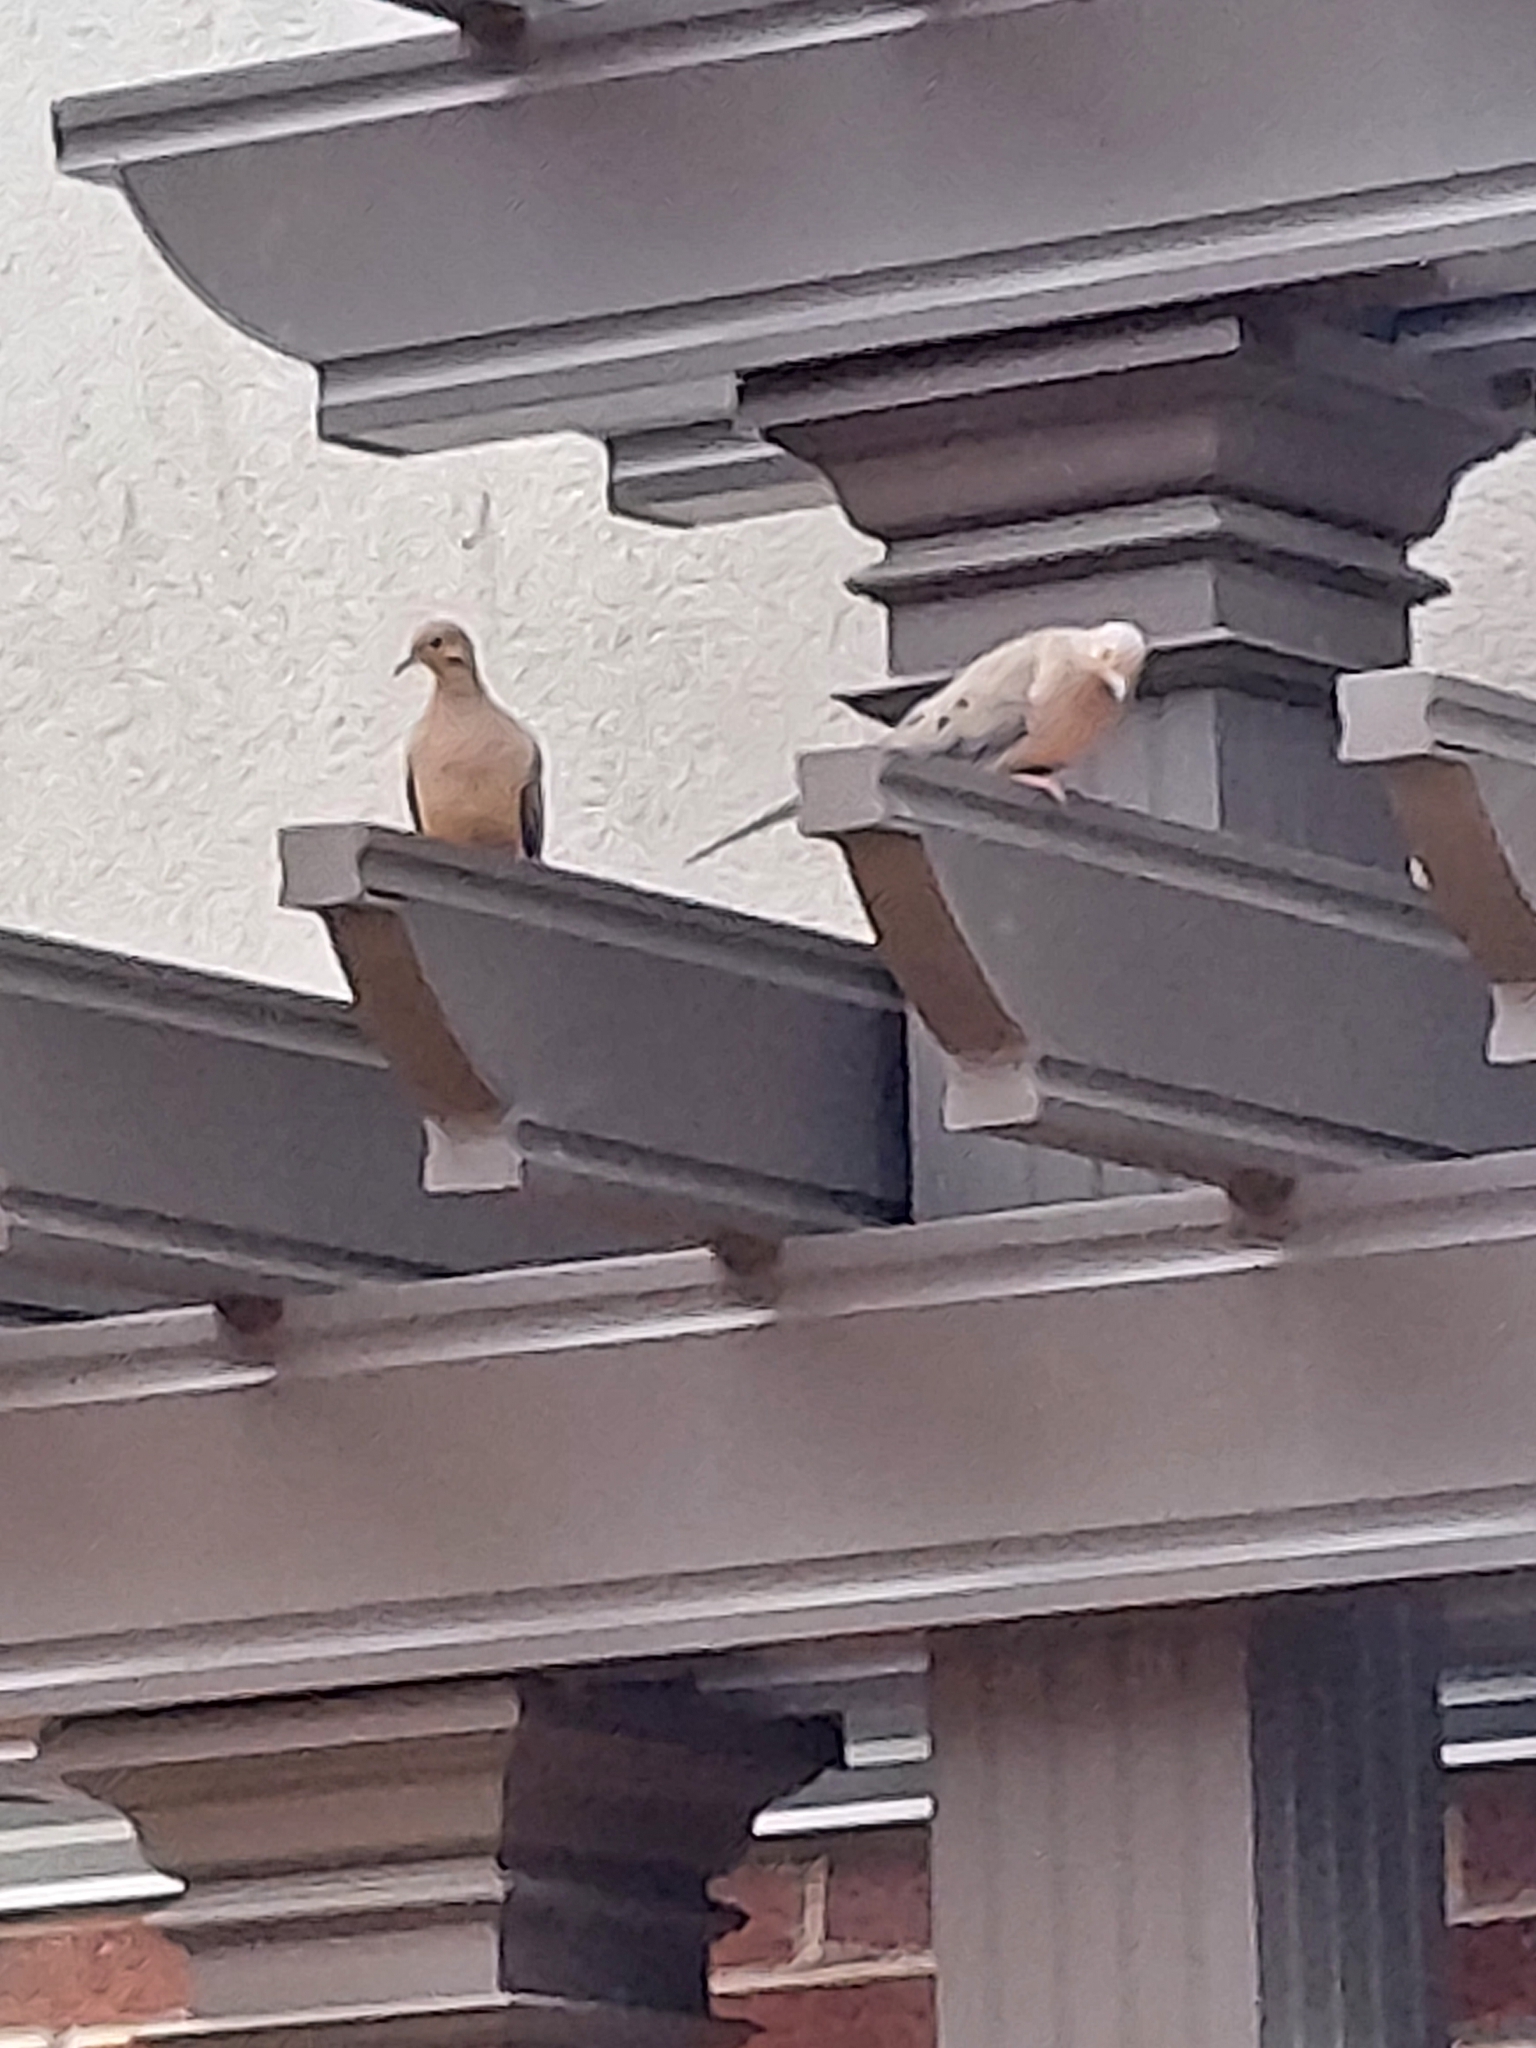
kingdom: Animalia
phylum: Chordata
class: Aves
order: Columbiformes
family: Columbidae
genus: Zenaida
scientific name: Zenaida macroura
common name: Mourning dove
